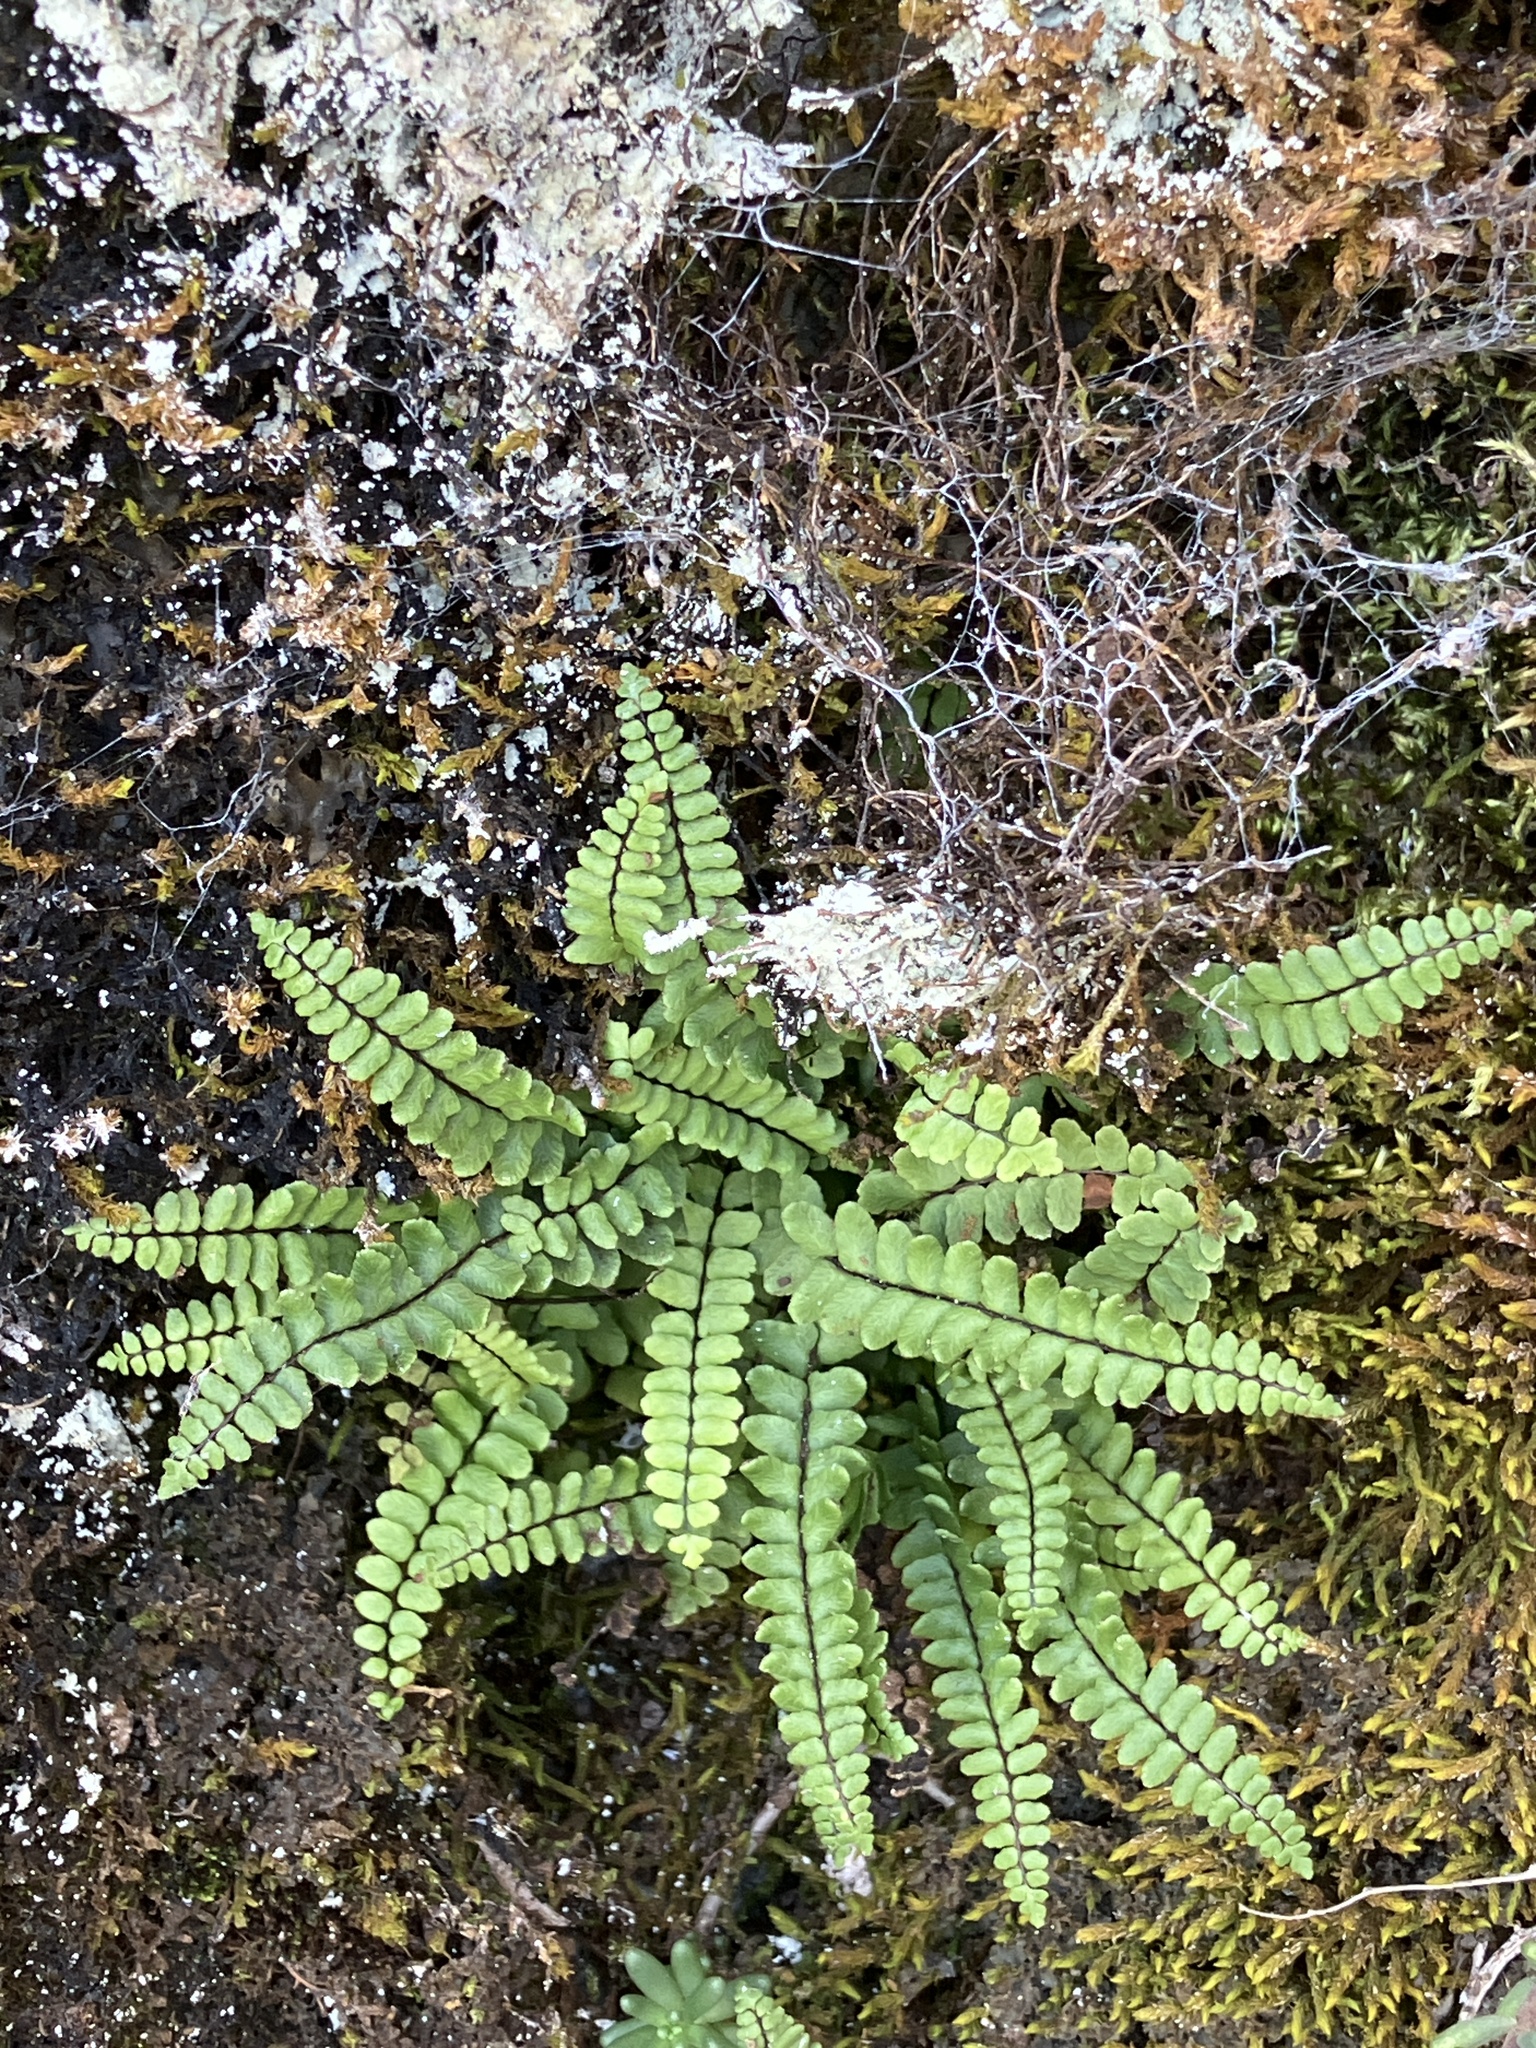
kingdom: Plantae
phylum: Tracheophyta
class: Polypodiopsida
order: Polypodiales
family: Aspleniaceae
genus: Asplenium
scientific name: Asplenium trichomanes
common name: Maidenhair spleenwort
